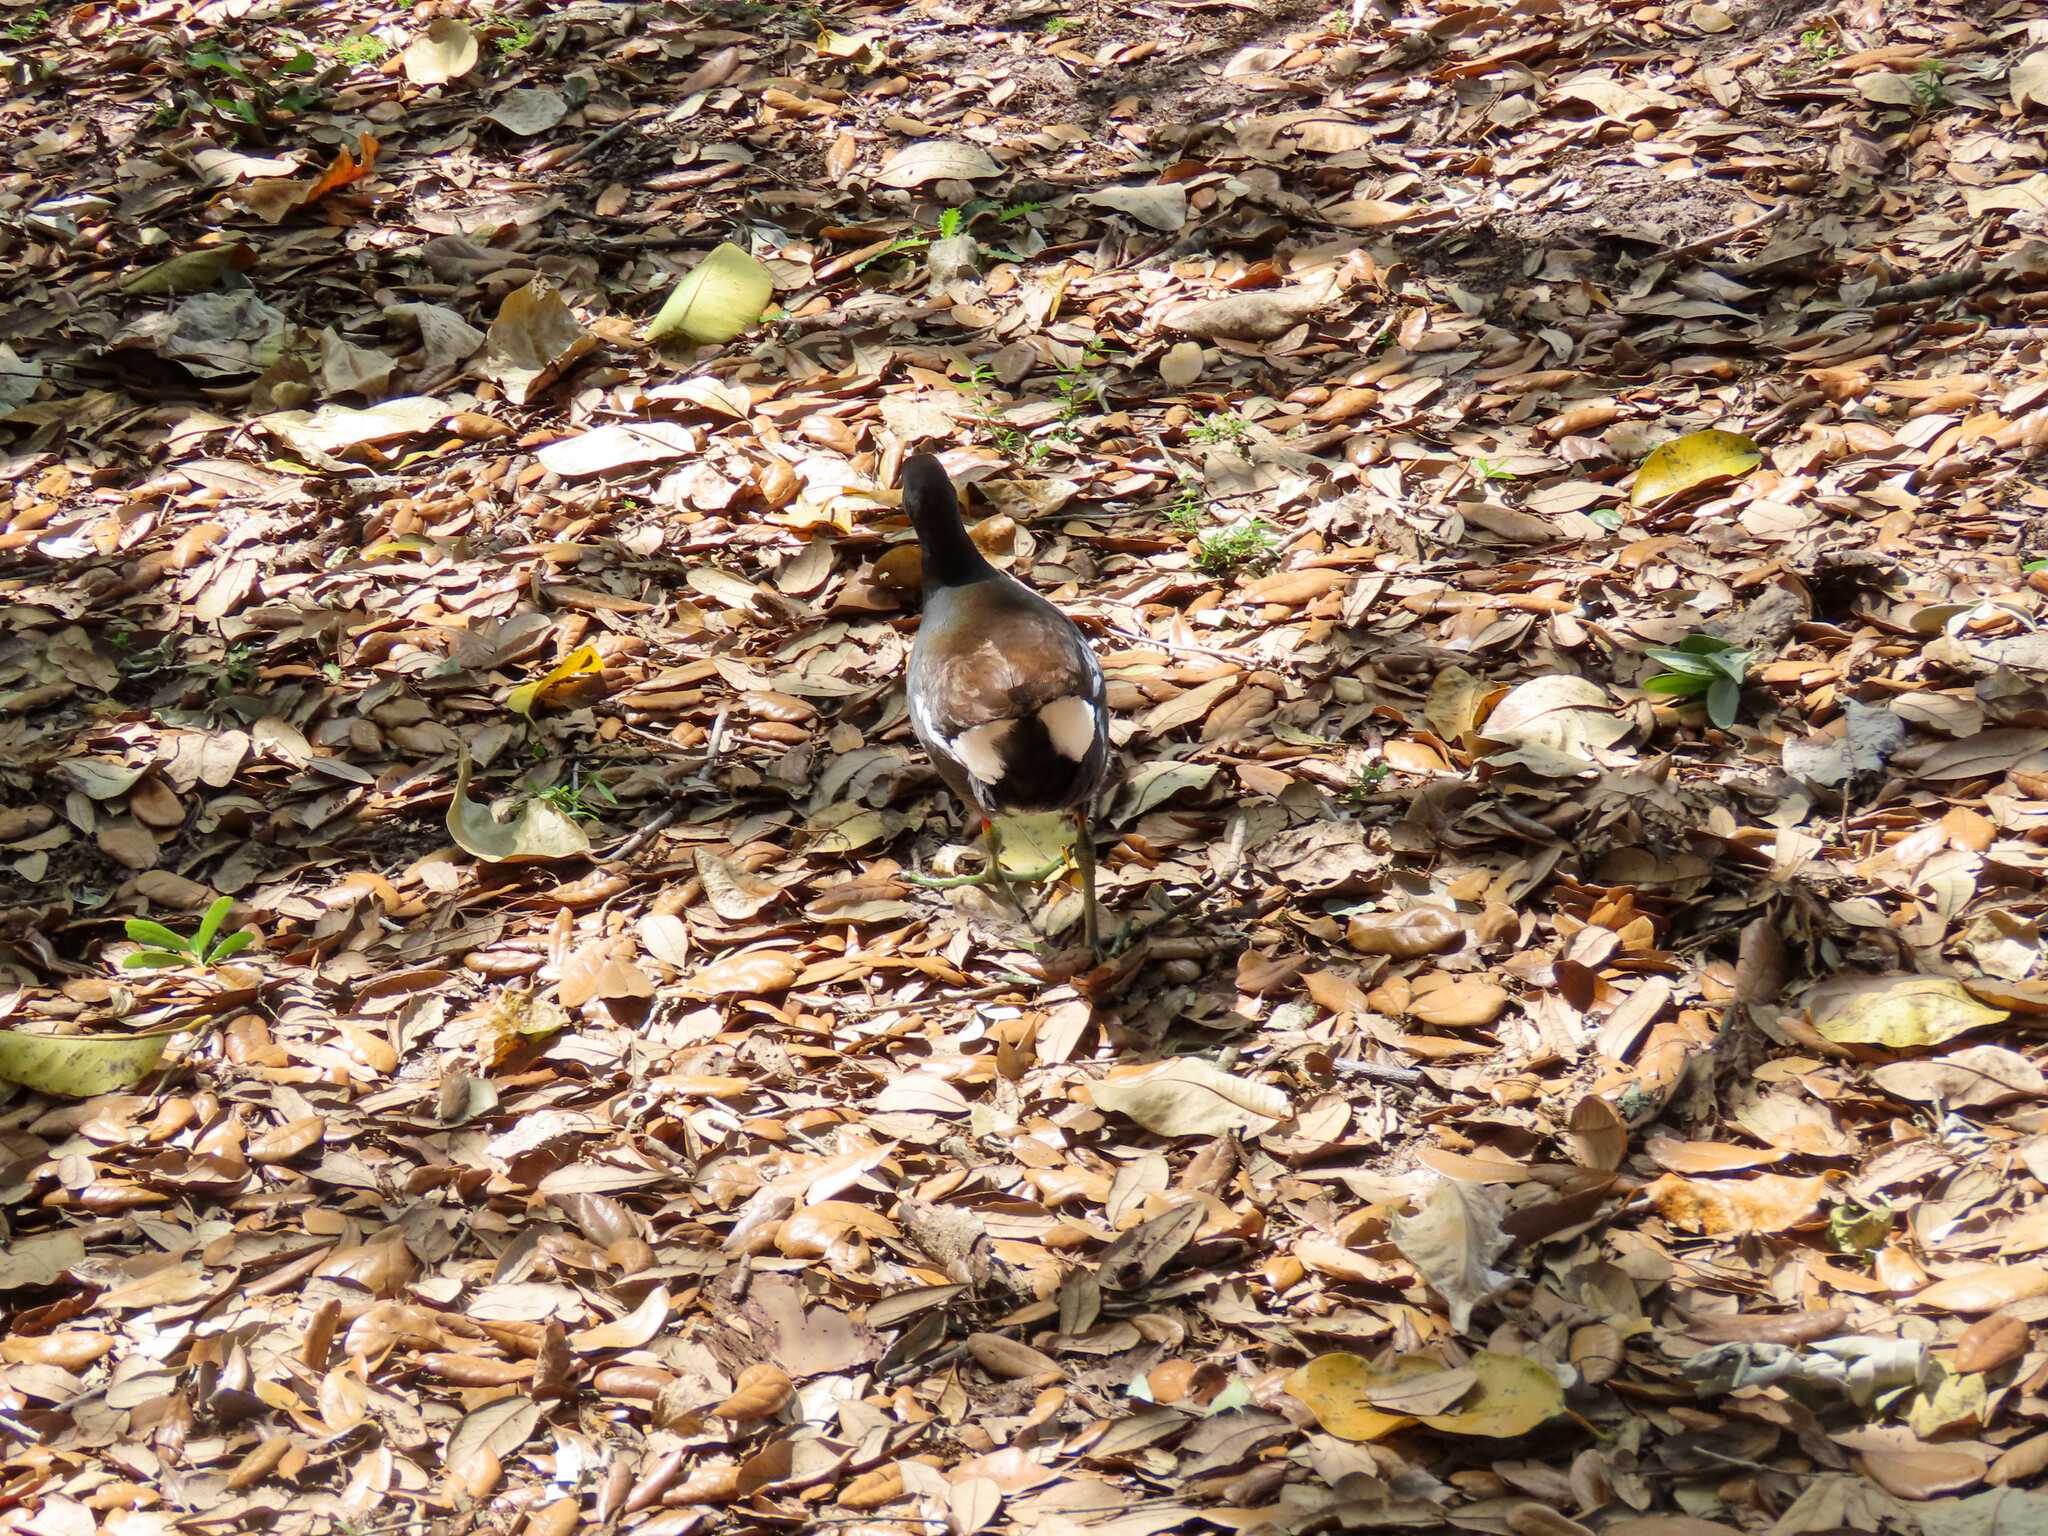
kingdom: Animalia
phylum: Chordata
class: Aves
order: Gruiformes
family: Rallidae
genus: Gallinula
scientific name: Gallinula chloropus
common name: Common moorhen
